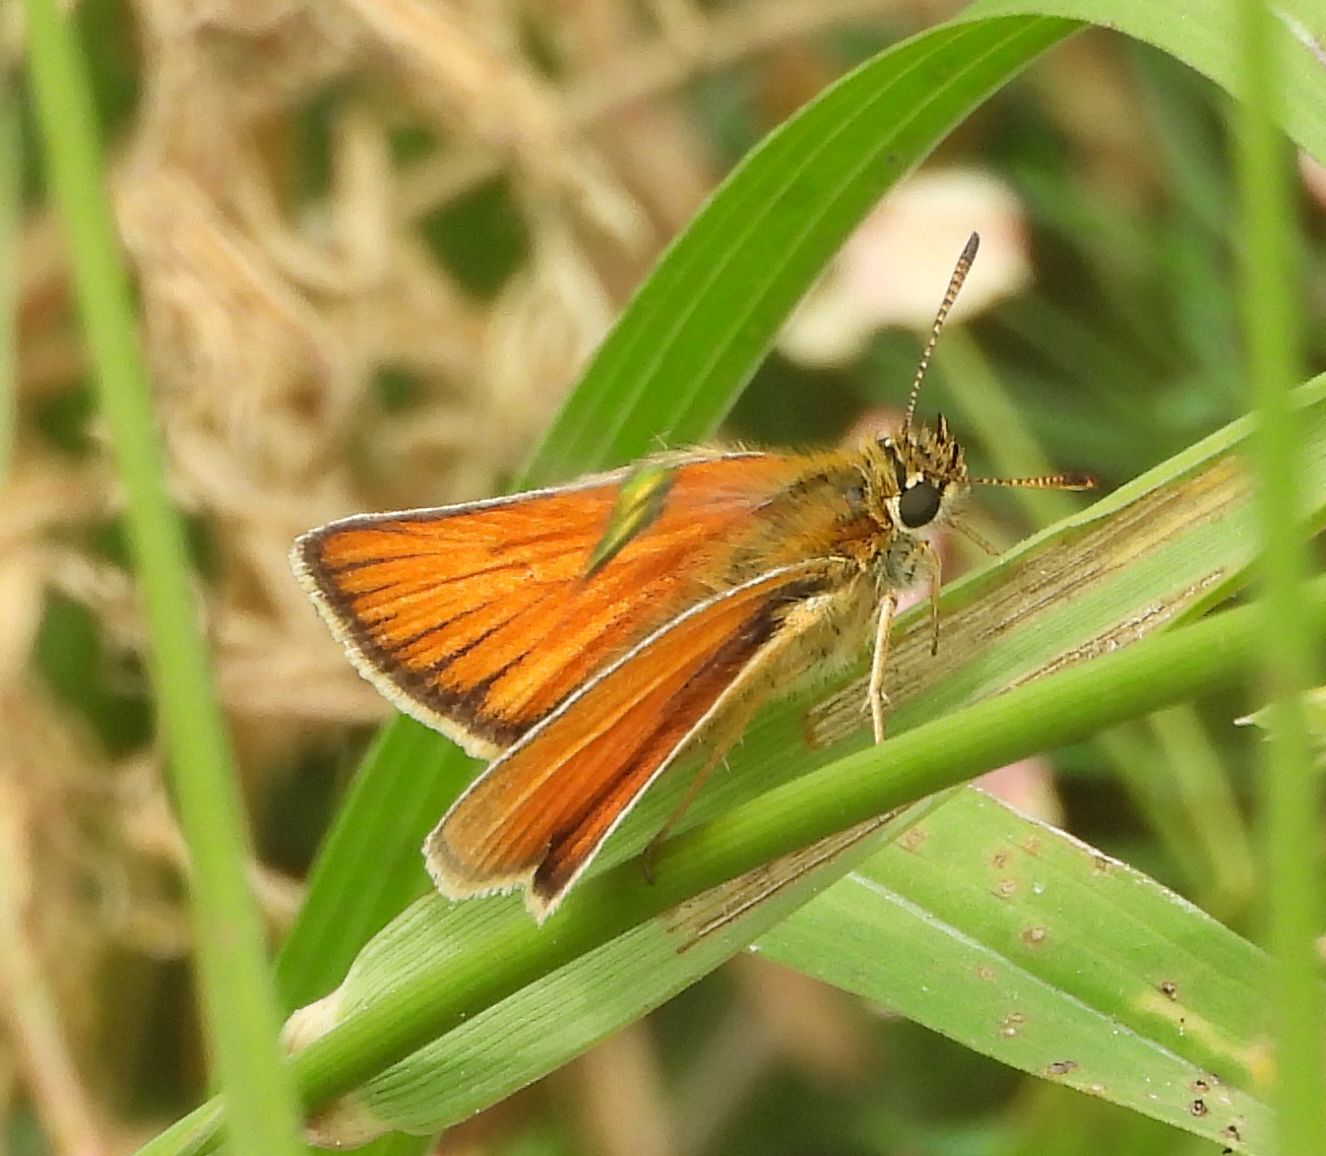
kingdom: Animalia
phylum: Arthropoda
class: Insecta
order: Lepidoptera
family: Hesperiidae
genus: Thymelicus
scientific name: Thymelicus lineola
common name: Essex skipper
